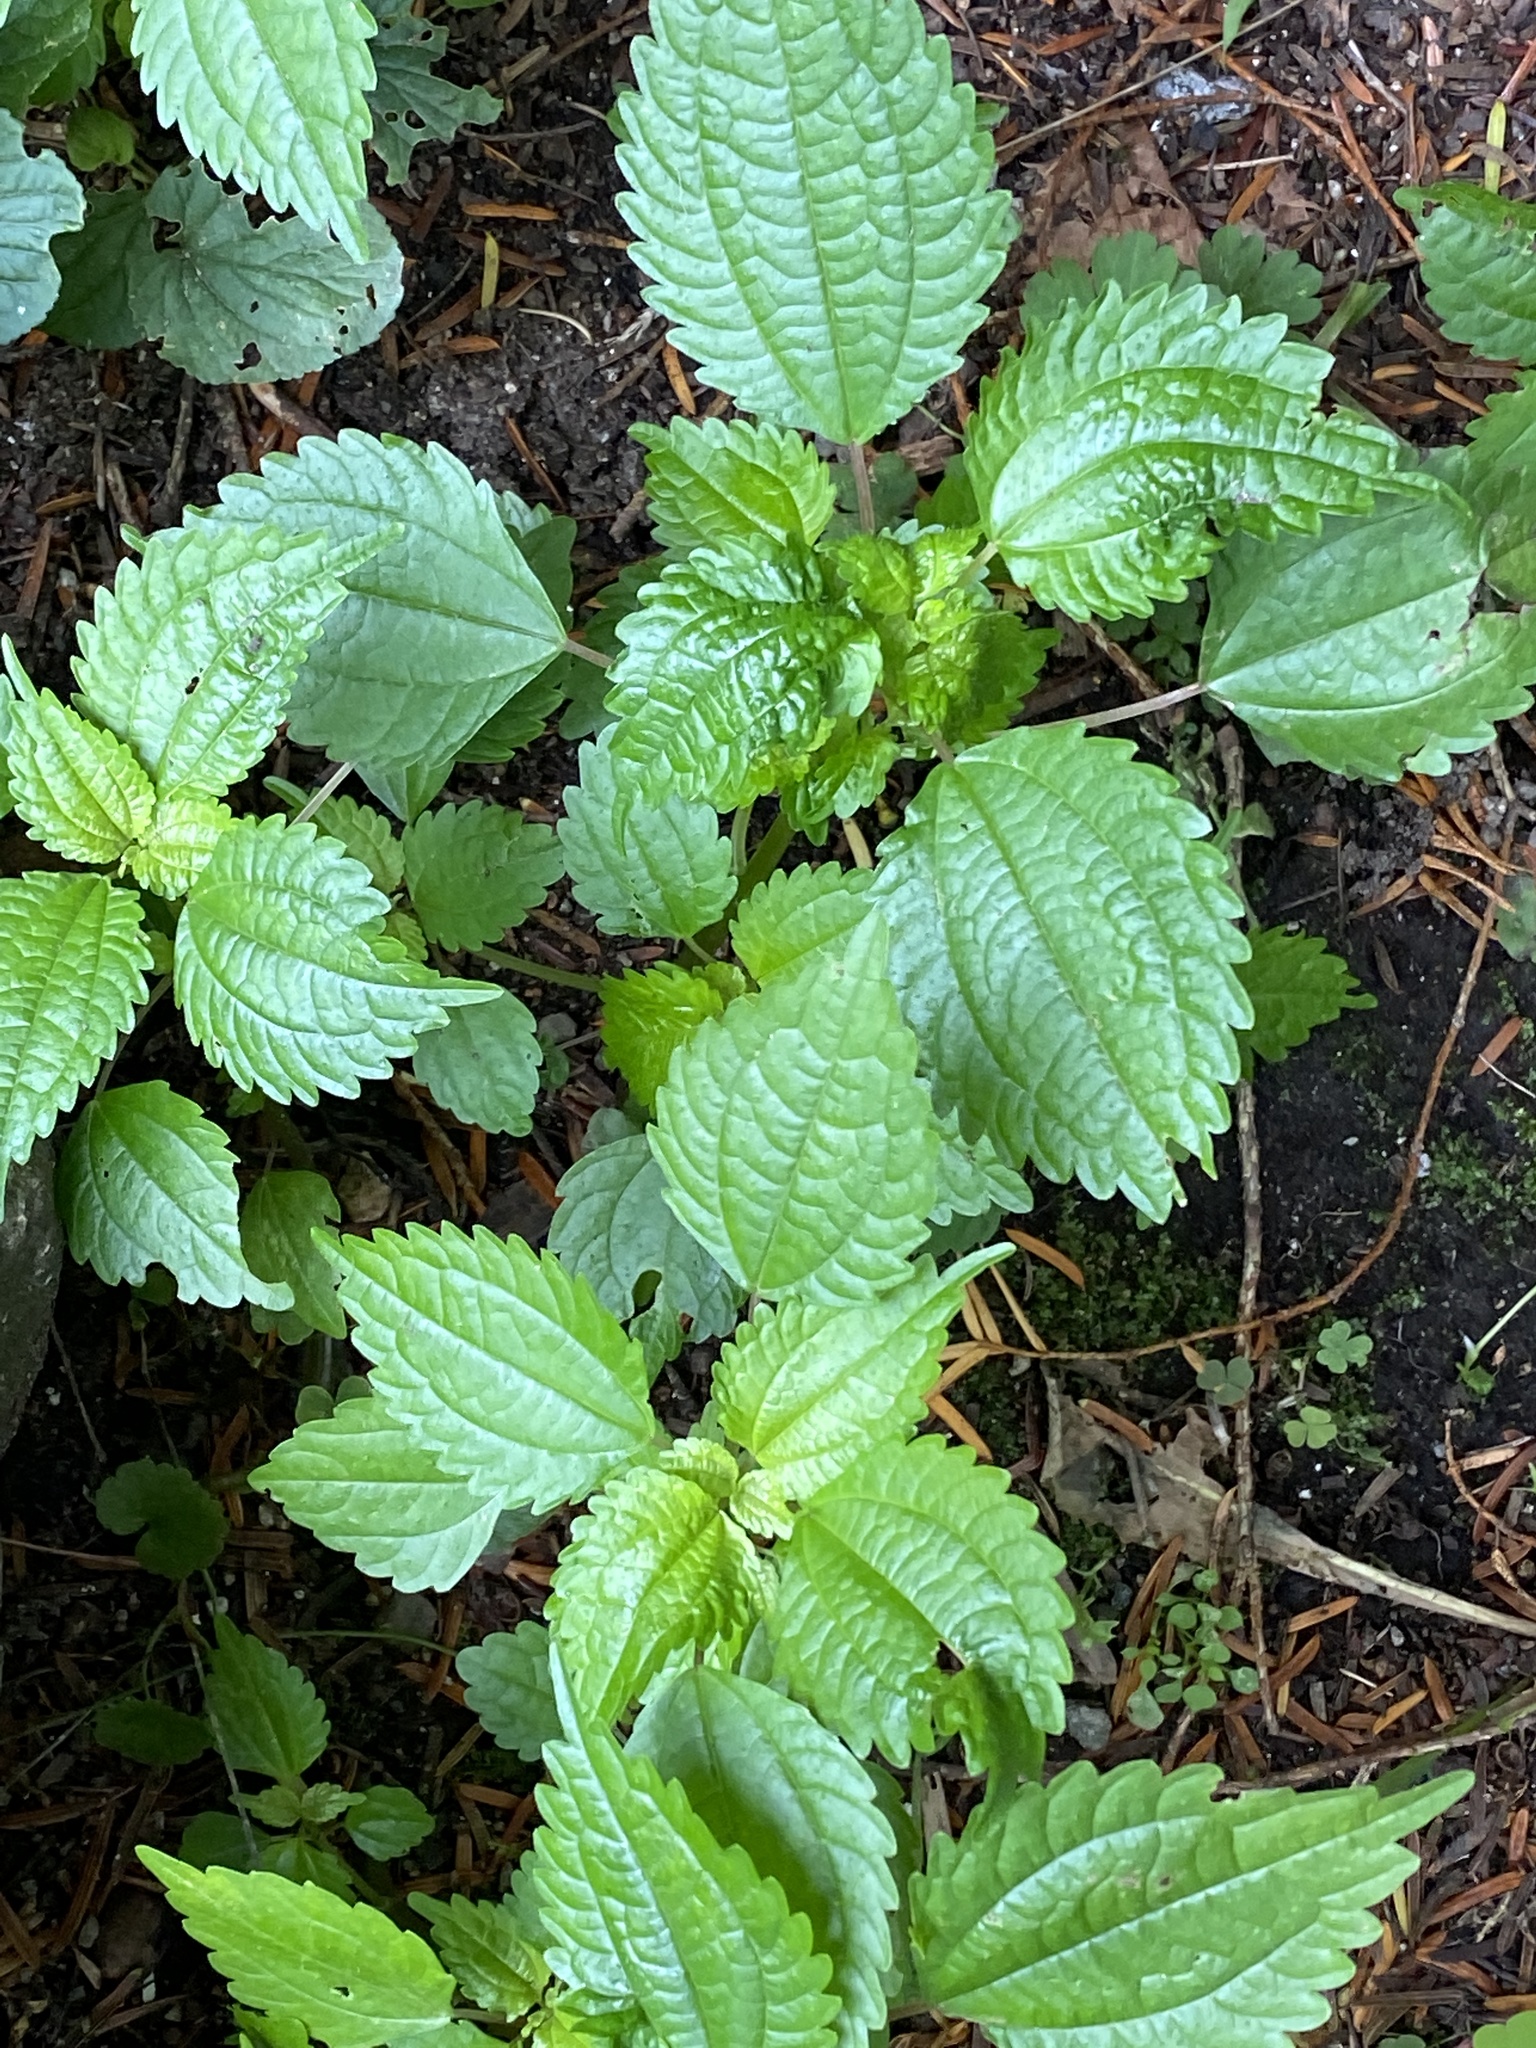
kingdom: Plantae
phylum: Tracheophyta
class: Magnoliopsida
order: Rosales
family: Urticaceae
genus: Pilea
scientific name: Pilea pumila
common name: Clearweed
